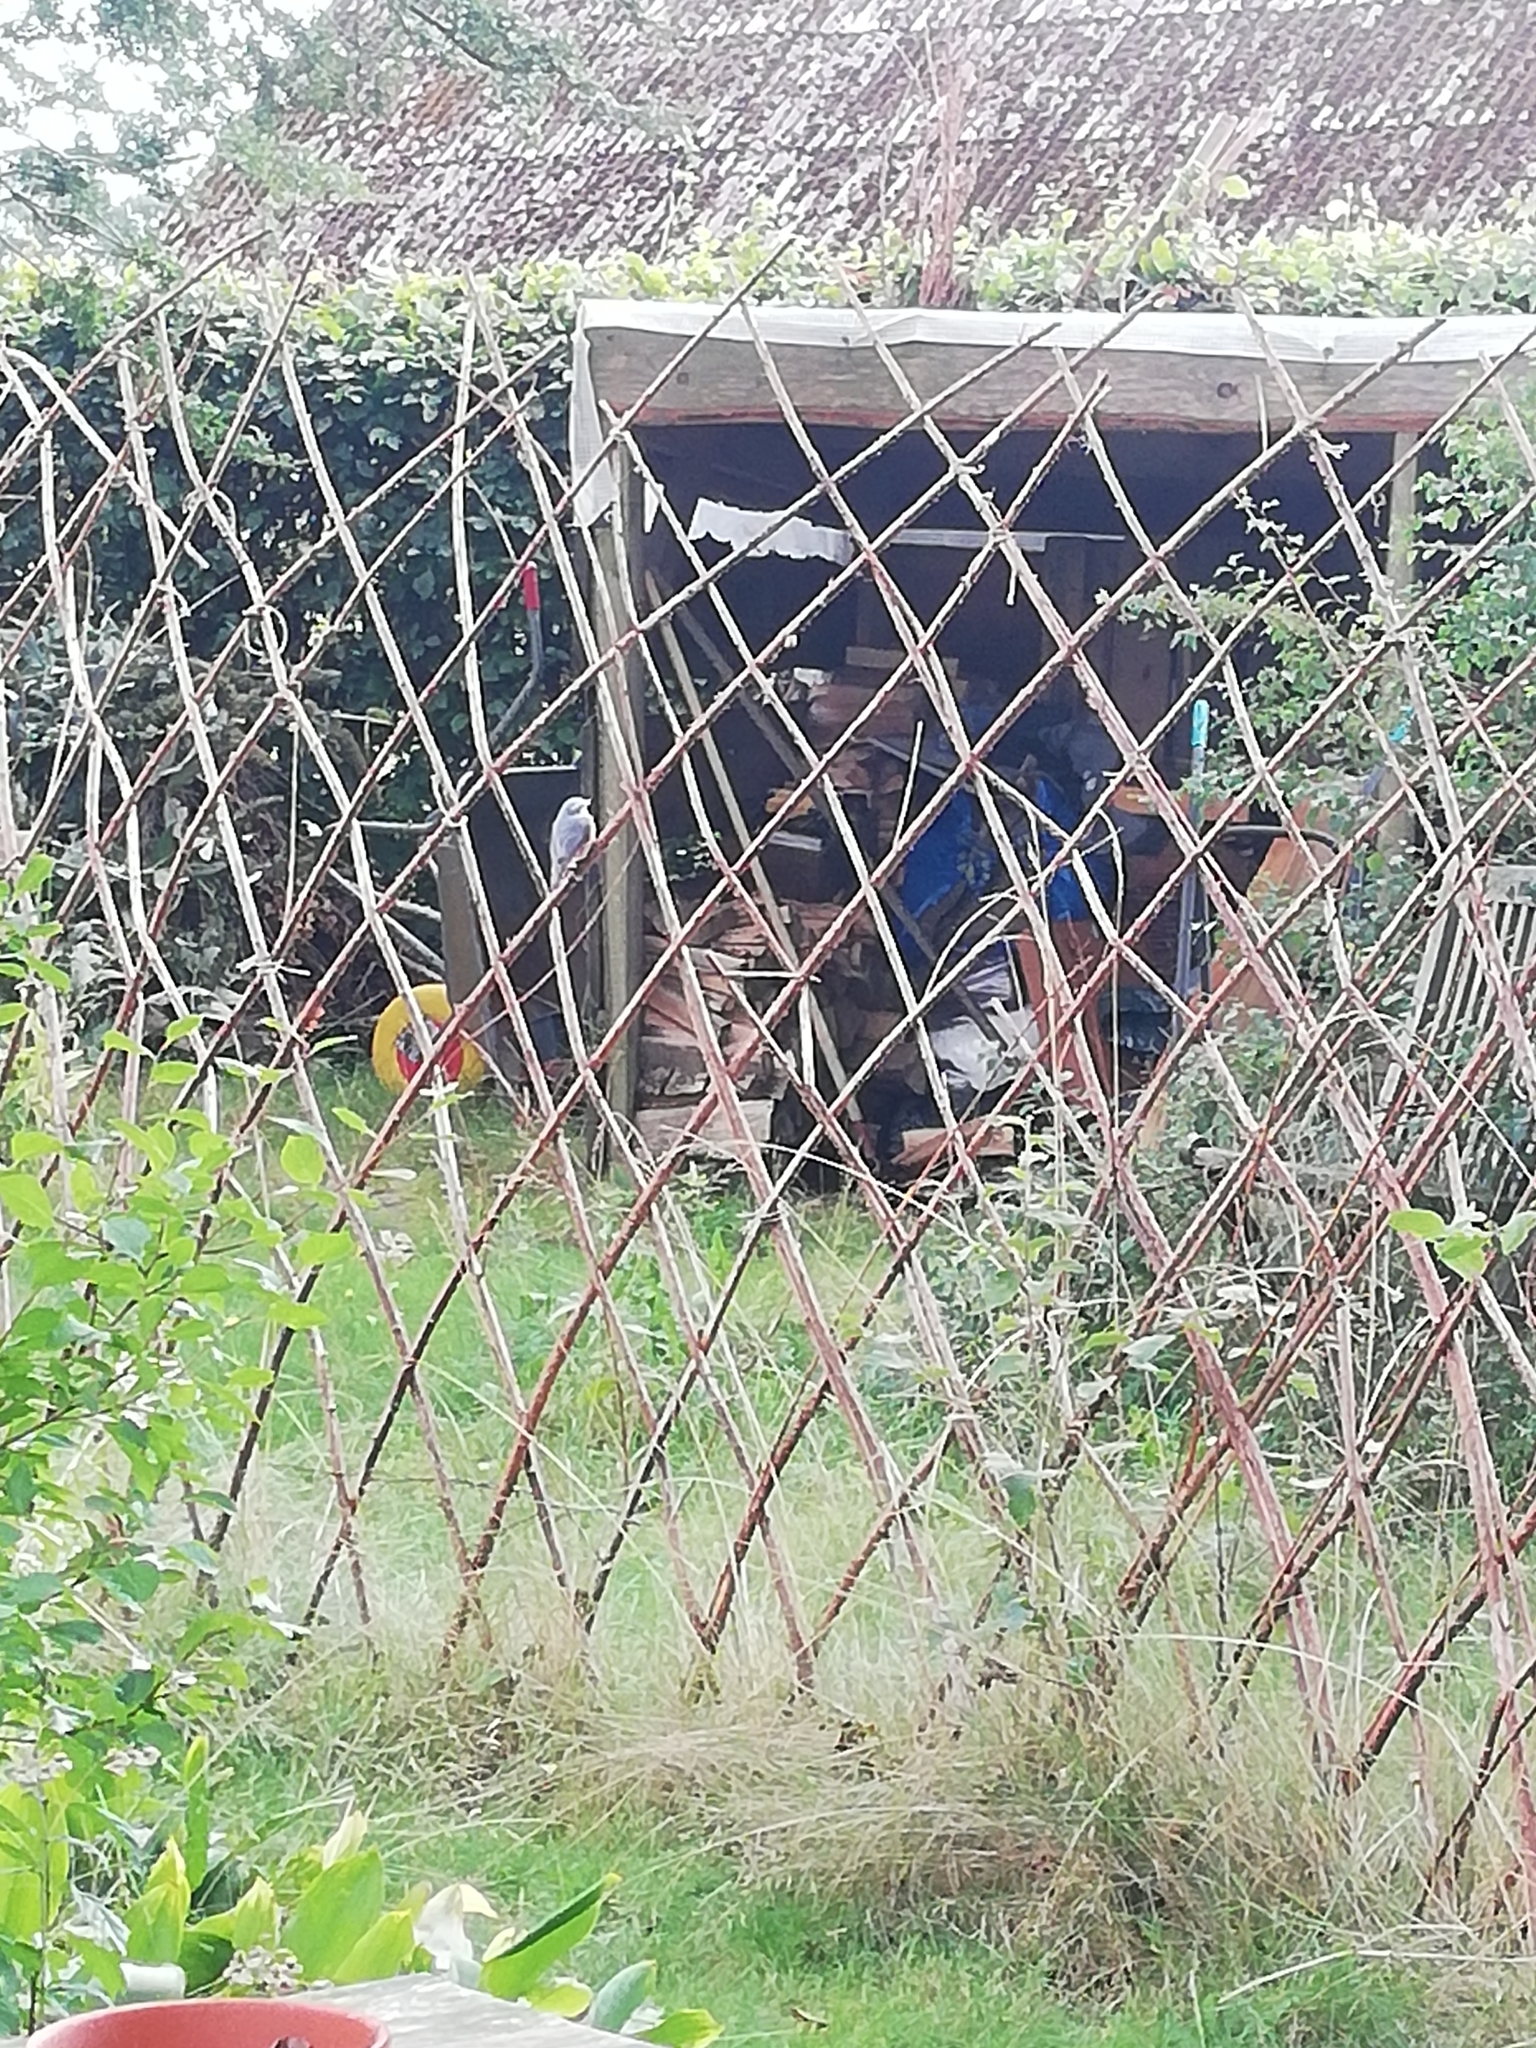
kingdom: Animalia
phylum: Chordata
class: Aves
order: Passeriformes
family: Sittidae
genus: Sitta
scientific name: Sitta europaea
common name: Eurasian nuthatch
